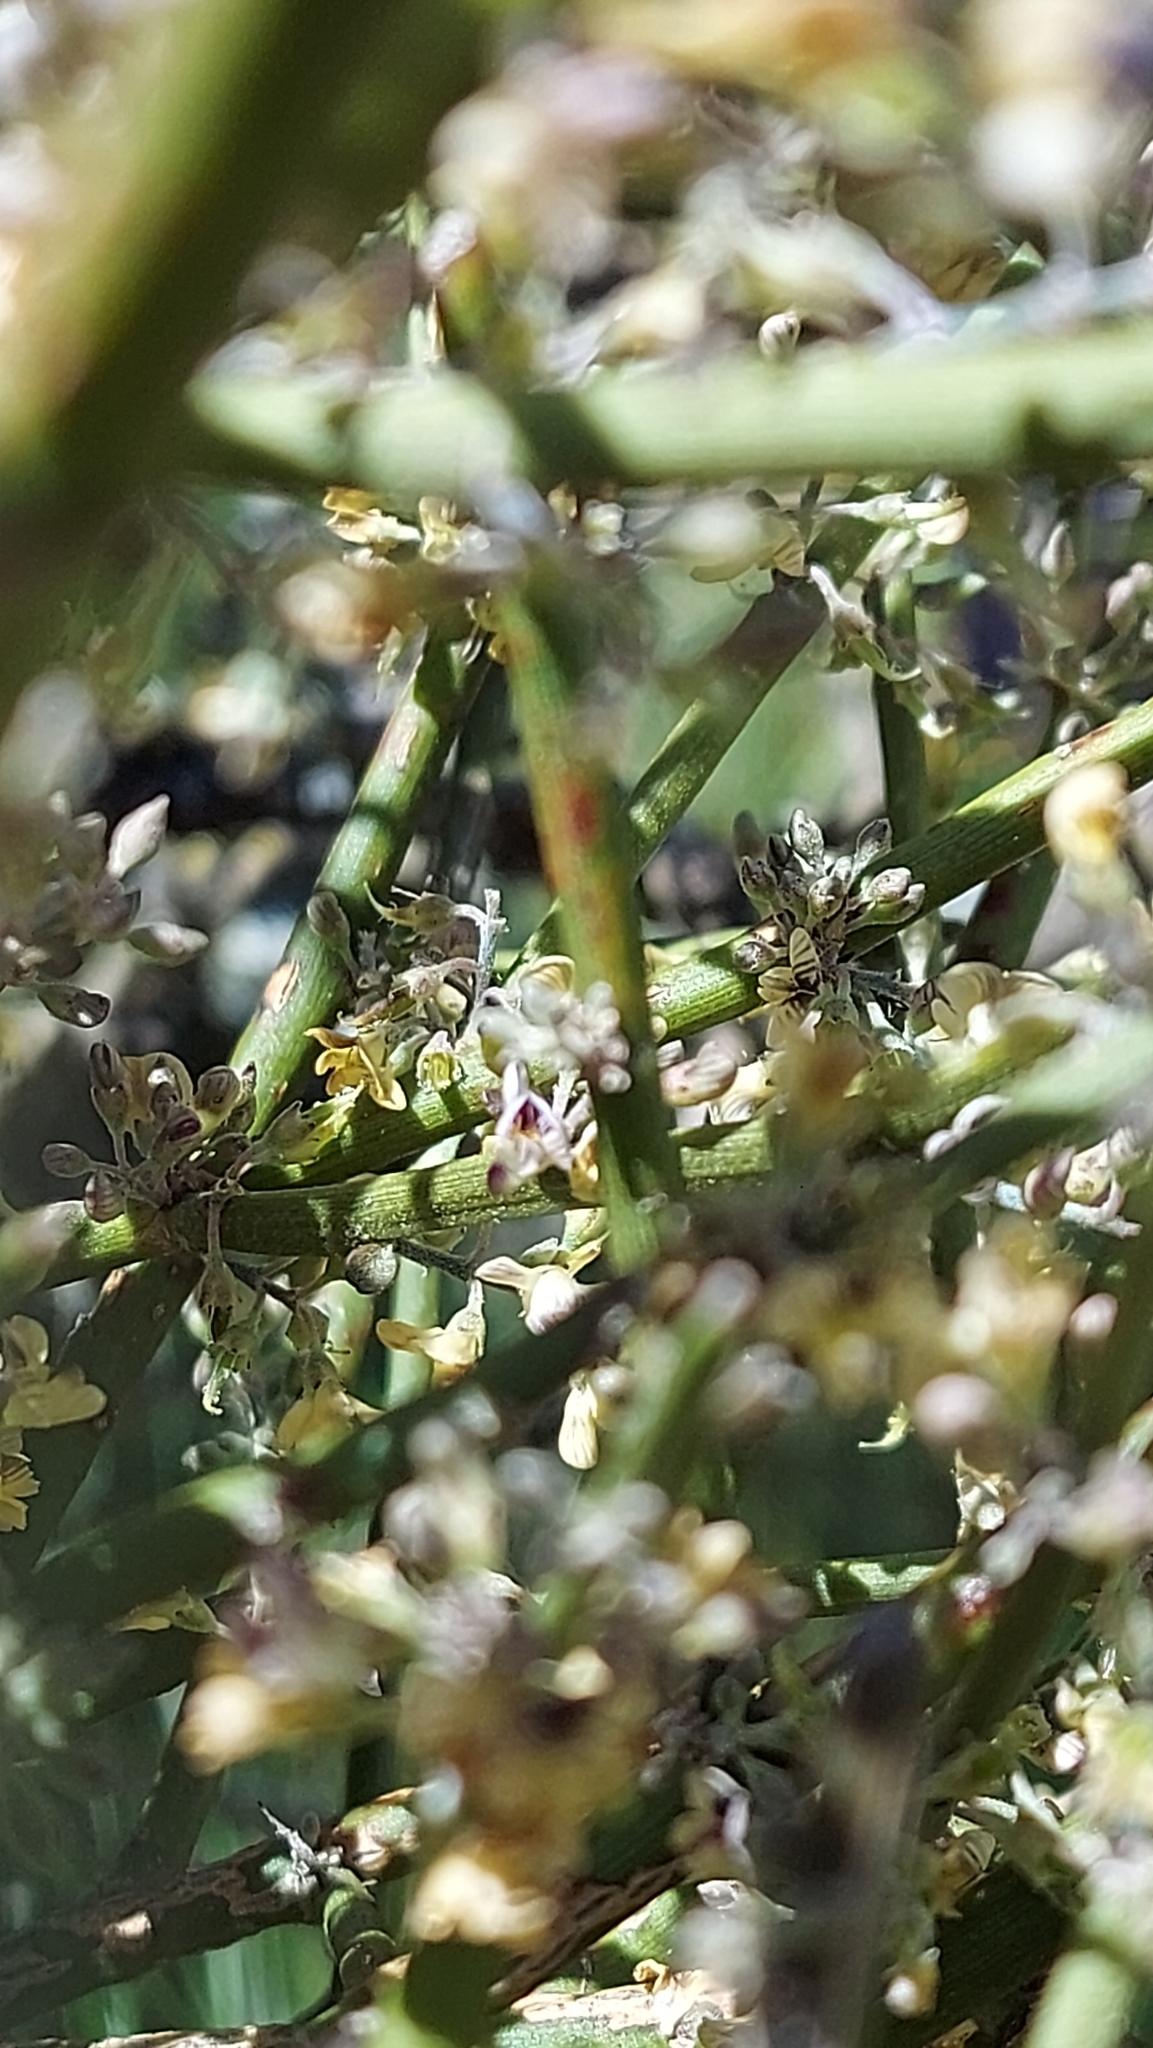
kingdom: Plantae
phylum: Tracheophyta
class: Magnoliopsida
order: Fabales
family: Fabaceae
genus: Carmichaelia
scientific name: Carmichaelia petriei
